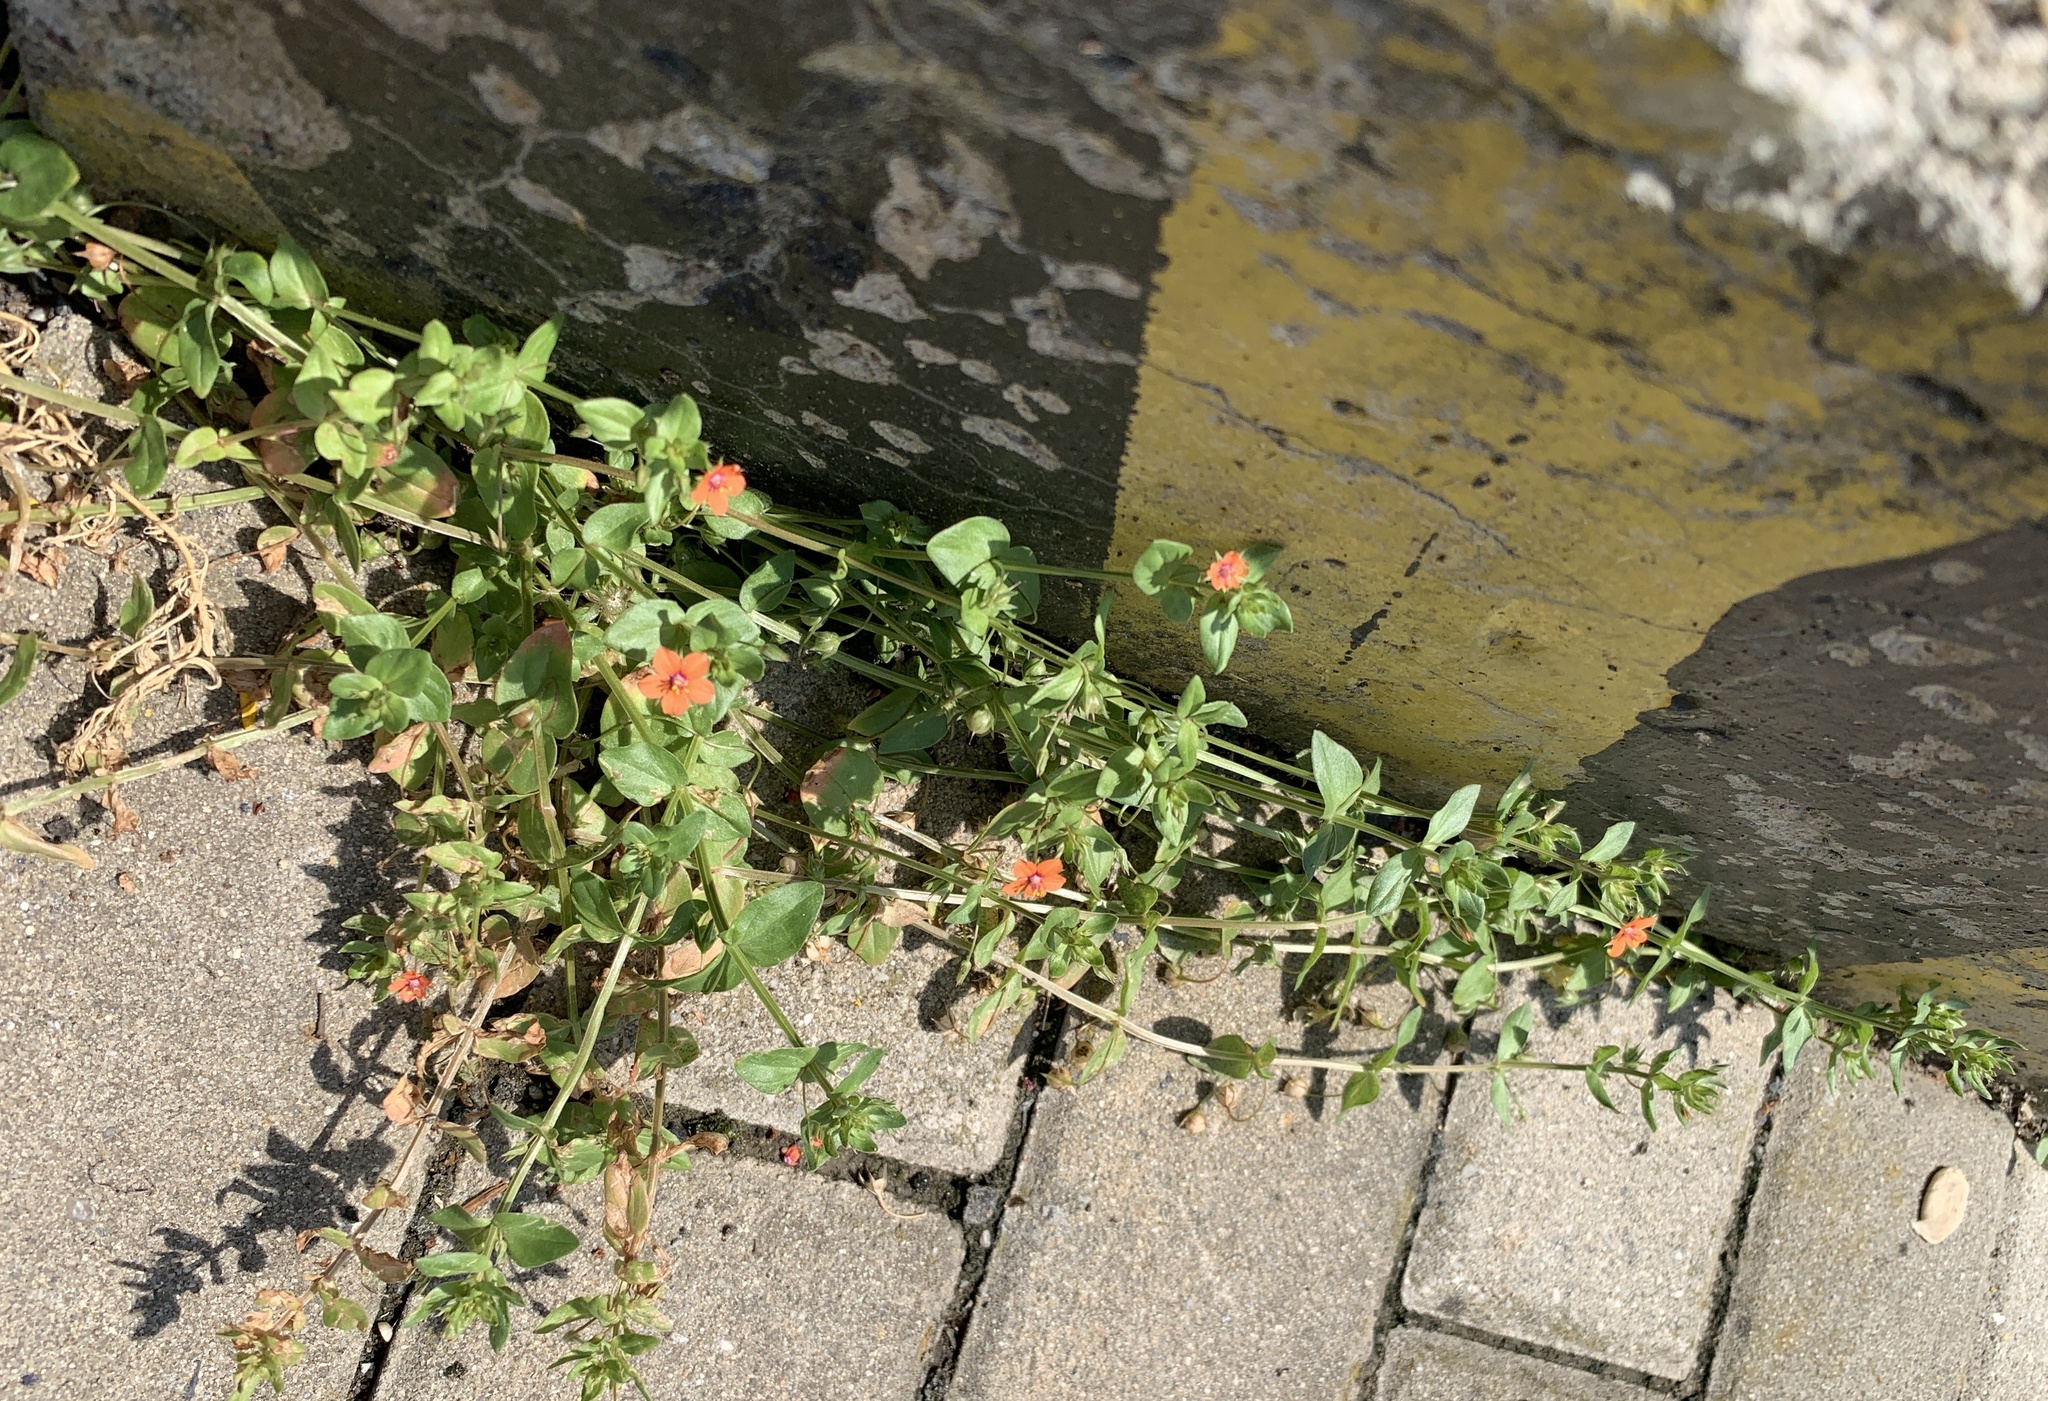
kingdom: Plantae
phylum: Tracheophyta
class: Magnoliopsida
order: Ericales
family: Primulaceae
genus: Lysimachia
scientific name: Lysimachia arvensis
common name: Scarlet pimpernel
